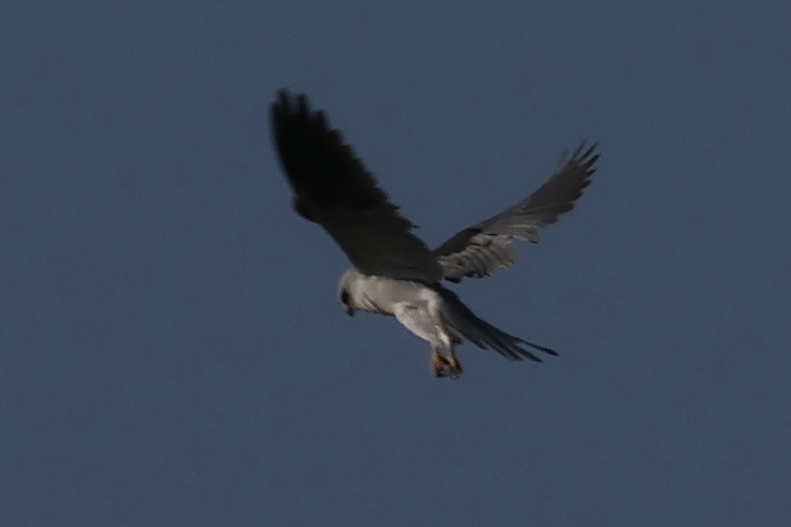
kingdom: Animalia
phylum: Chordata
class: Aves
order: Accipitriformes
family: Accipitridae
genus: Elanus
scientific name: Elanus leucurus
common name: White-tailed kite
